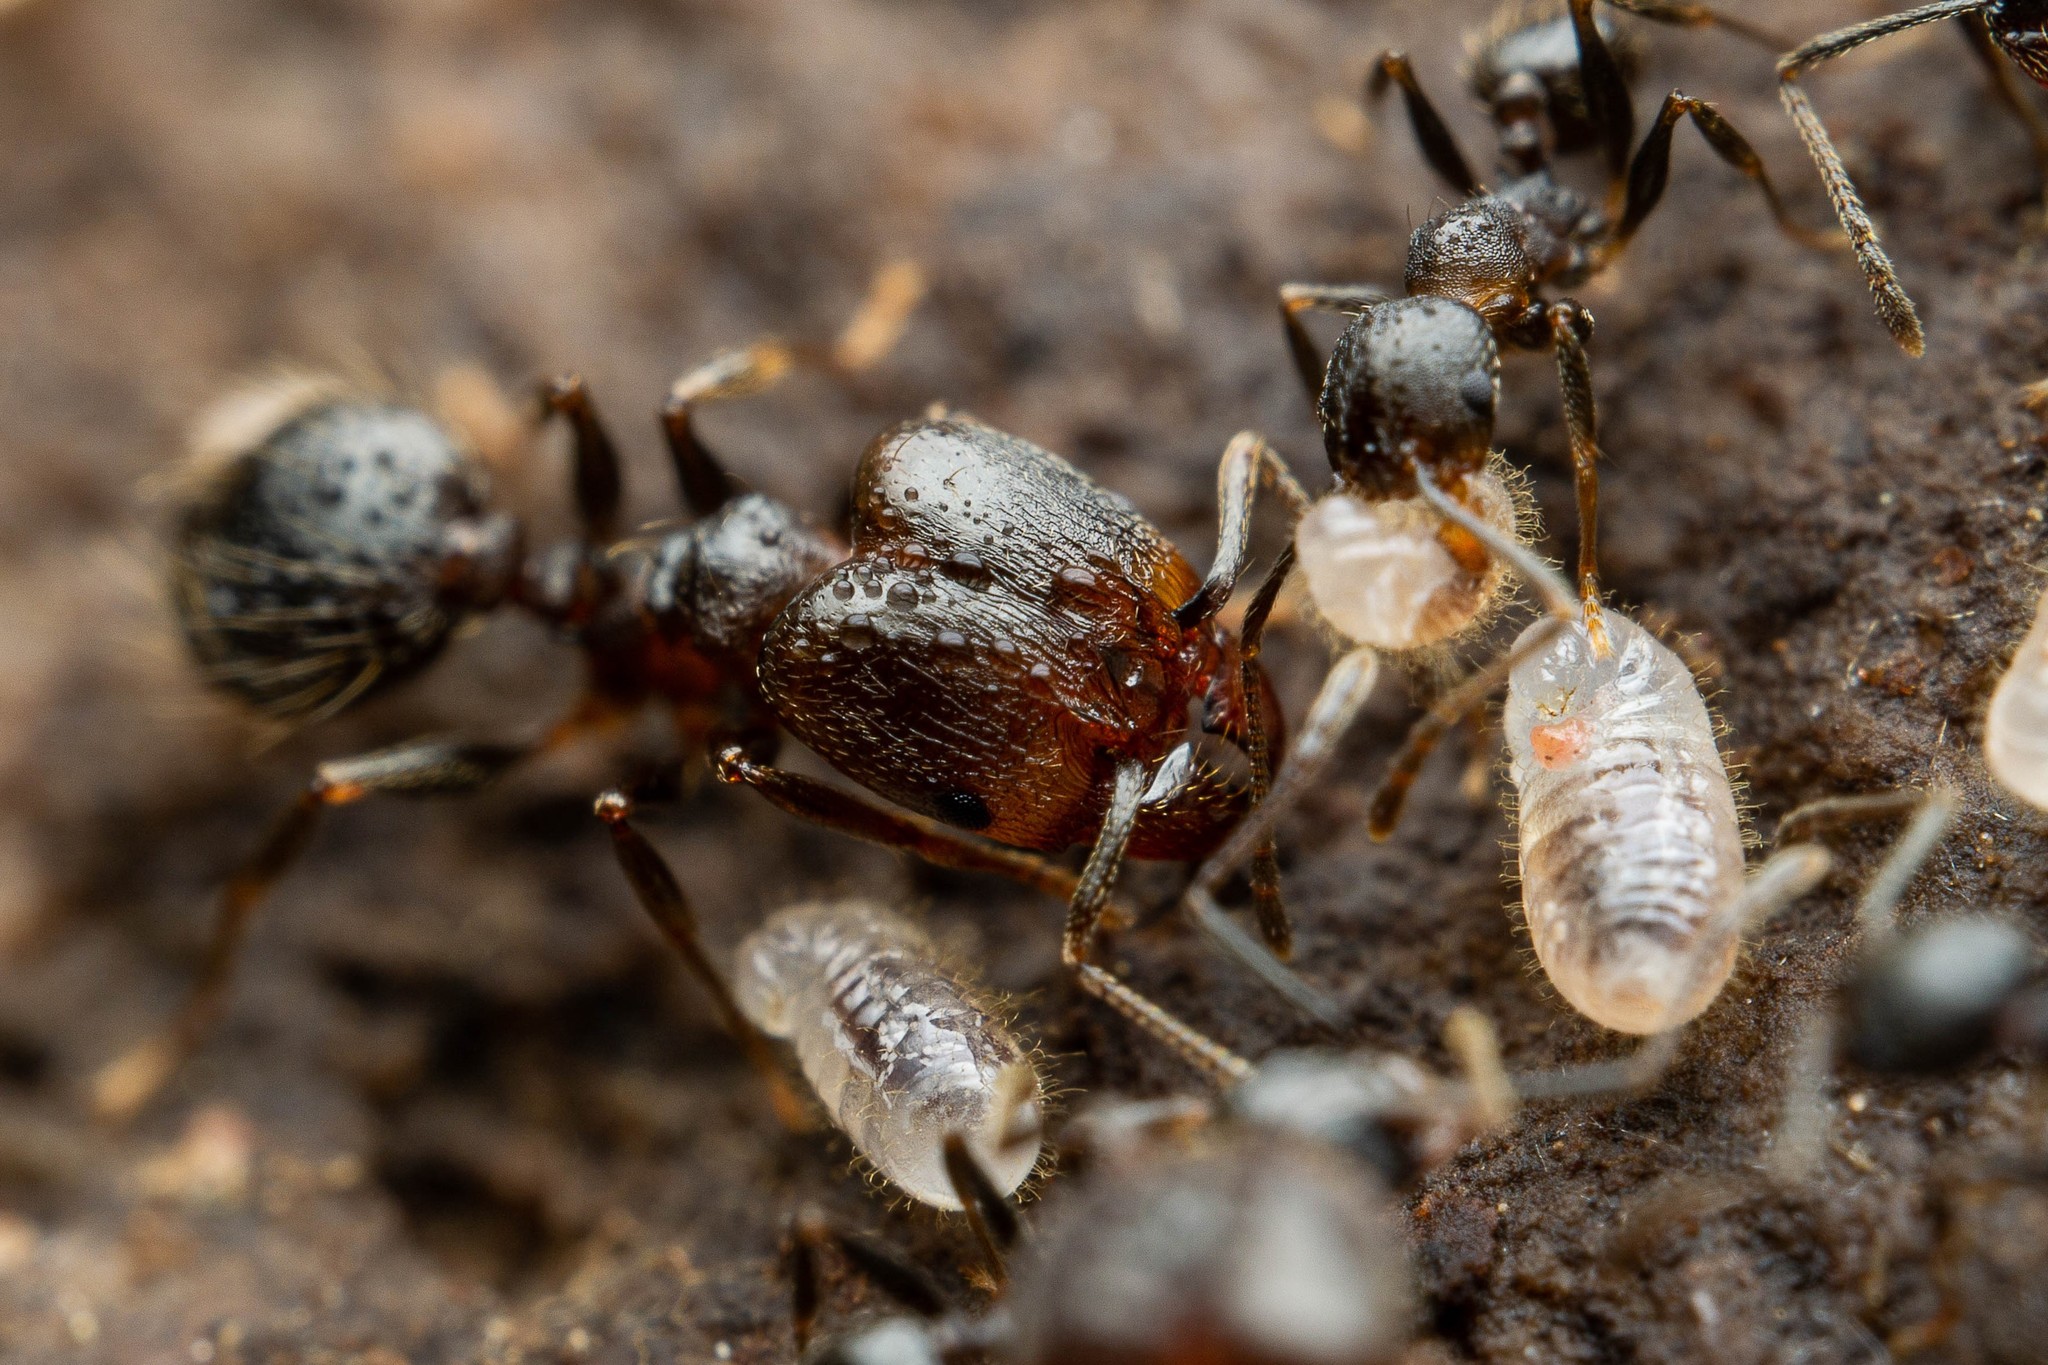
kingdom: Animalia
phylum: Arthropoda
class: Insecta
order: Hymenoptera
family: Formicidae
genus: Pheidole
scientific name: Pheidole vallicola
